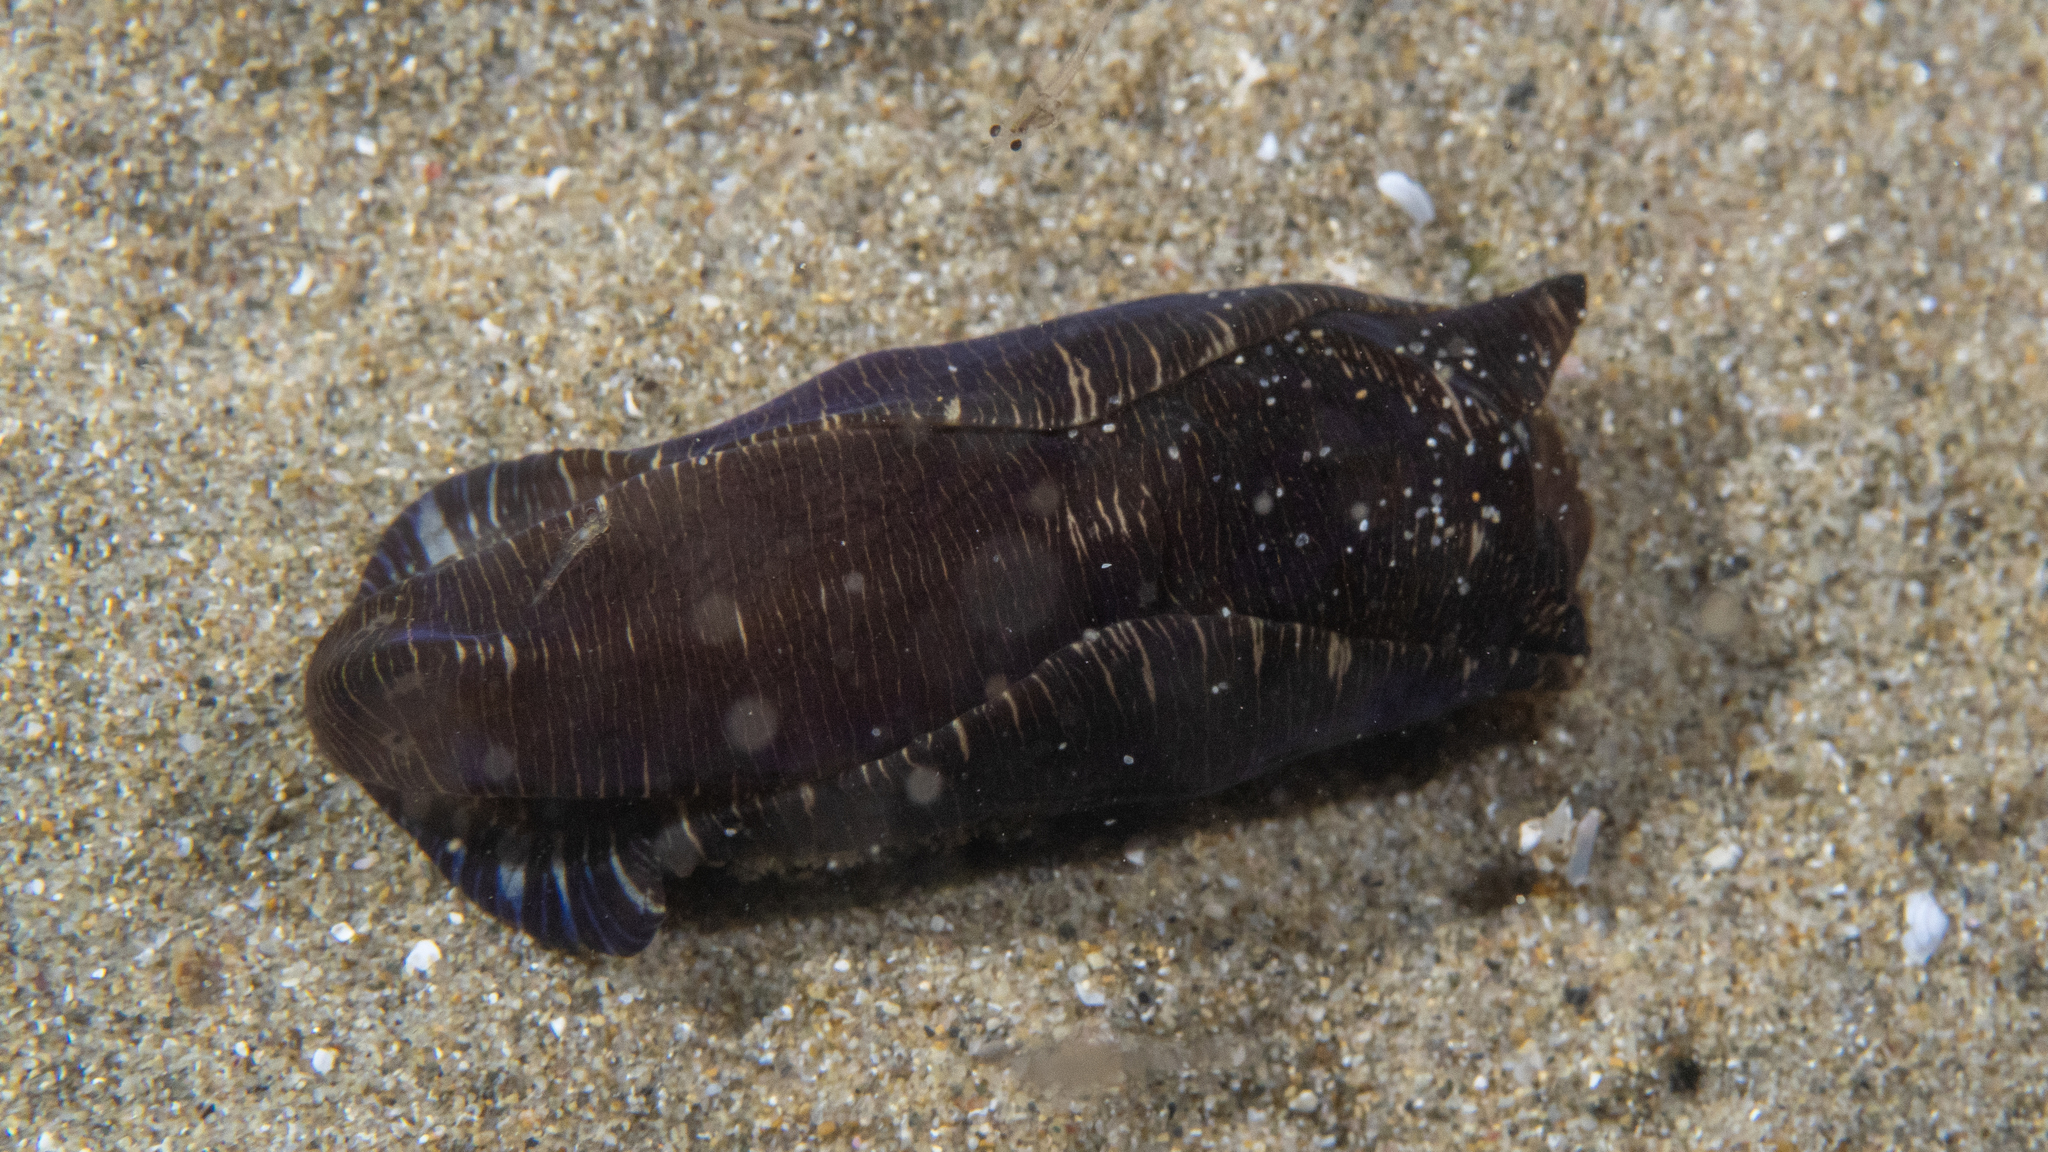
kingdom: Animalia
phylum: Mollusca
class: Gastropoda
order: Cephalaspidea
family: Aglajidae
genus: Tubulophilinopsis
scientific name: Tubulophilinopsis lineolata
